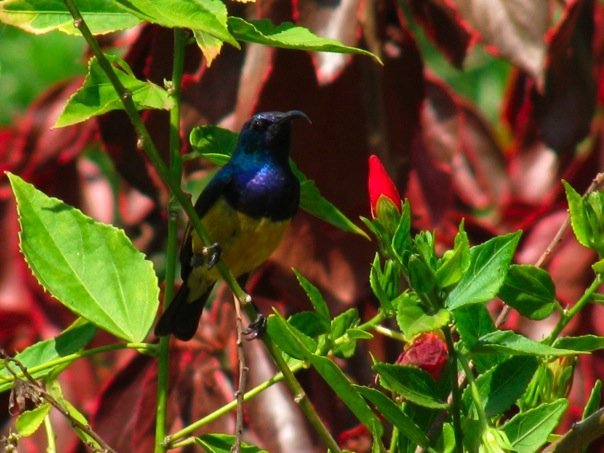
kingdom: Animalia
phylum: Chordata
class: Aves
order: Passeriformes
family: Nectariniidae
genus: Cinnyris
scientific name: Cinnyris venustus
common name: Variable sunbird
